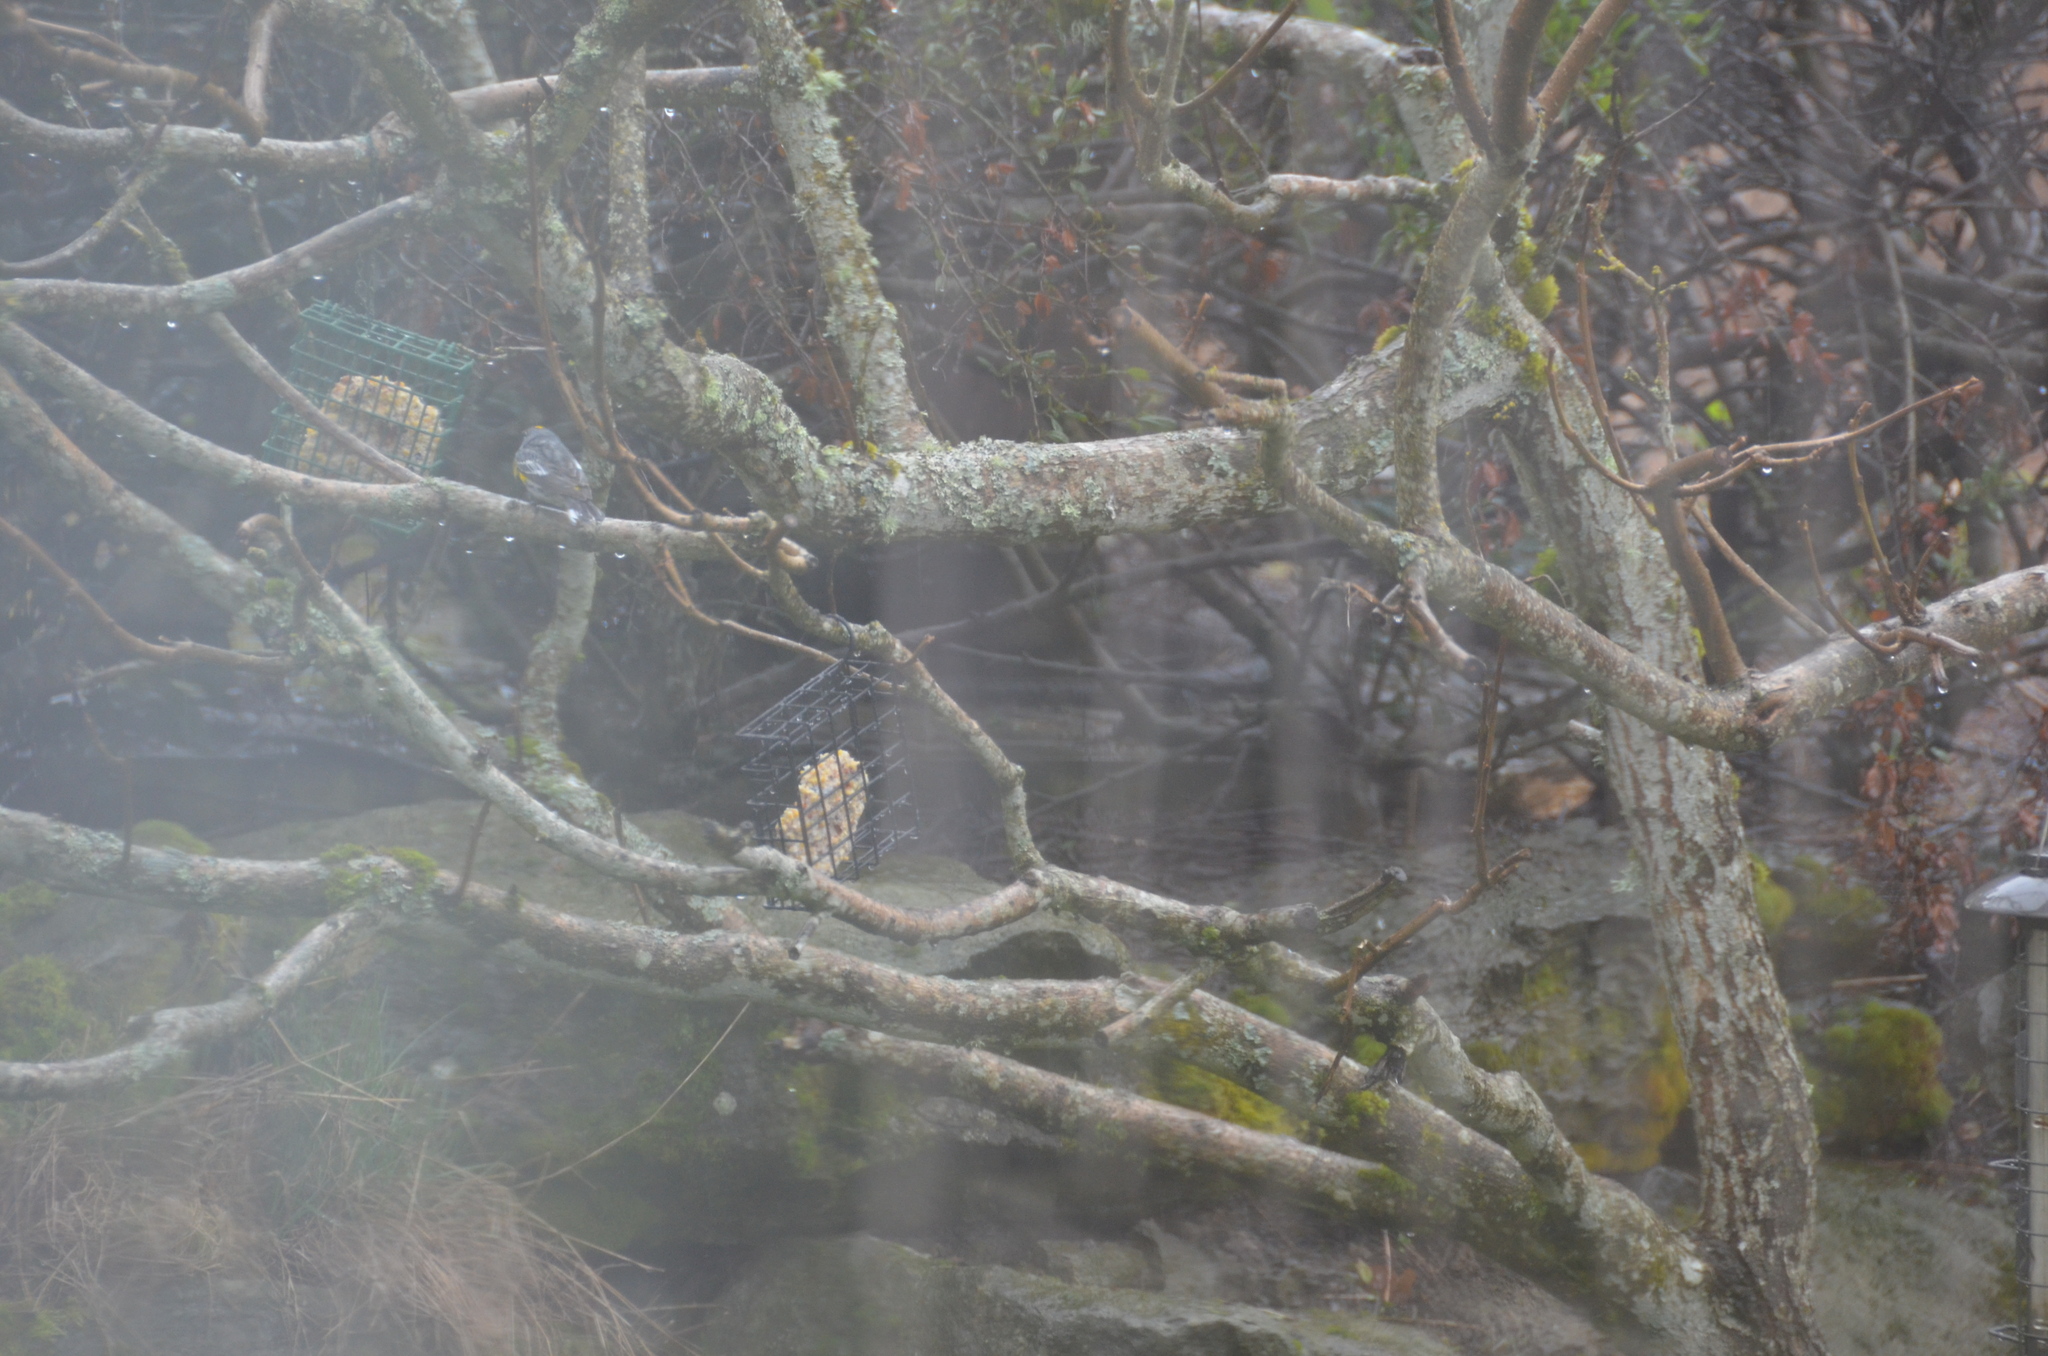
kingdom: Animalia
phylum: Chordata
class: Aves
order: Passeriformes
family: Parulidae
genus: Setophaga
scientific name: Setophaga coronata
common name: Myrtle warbler
